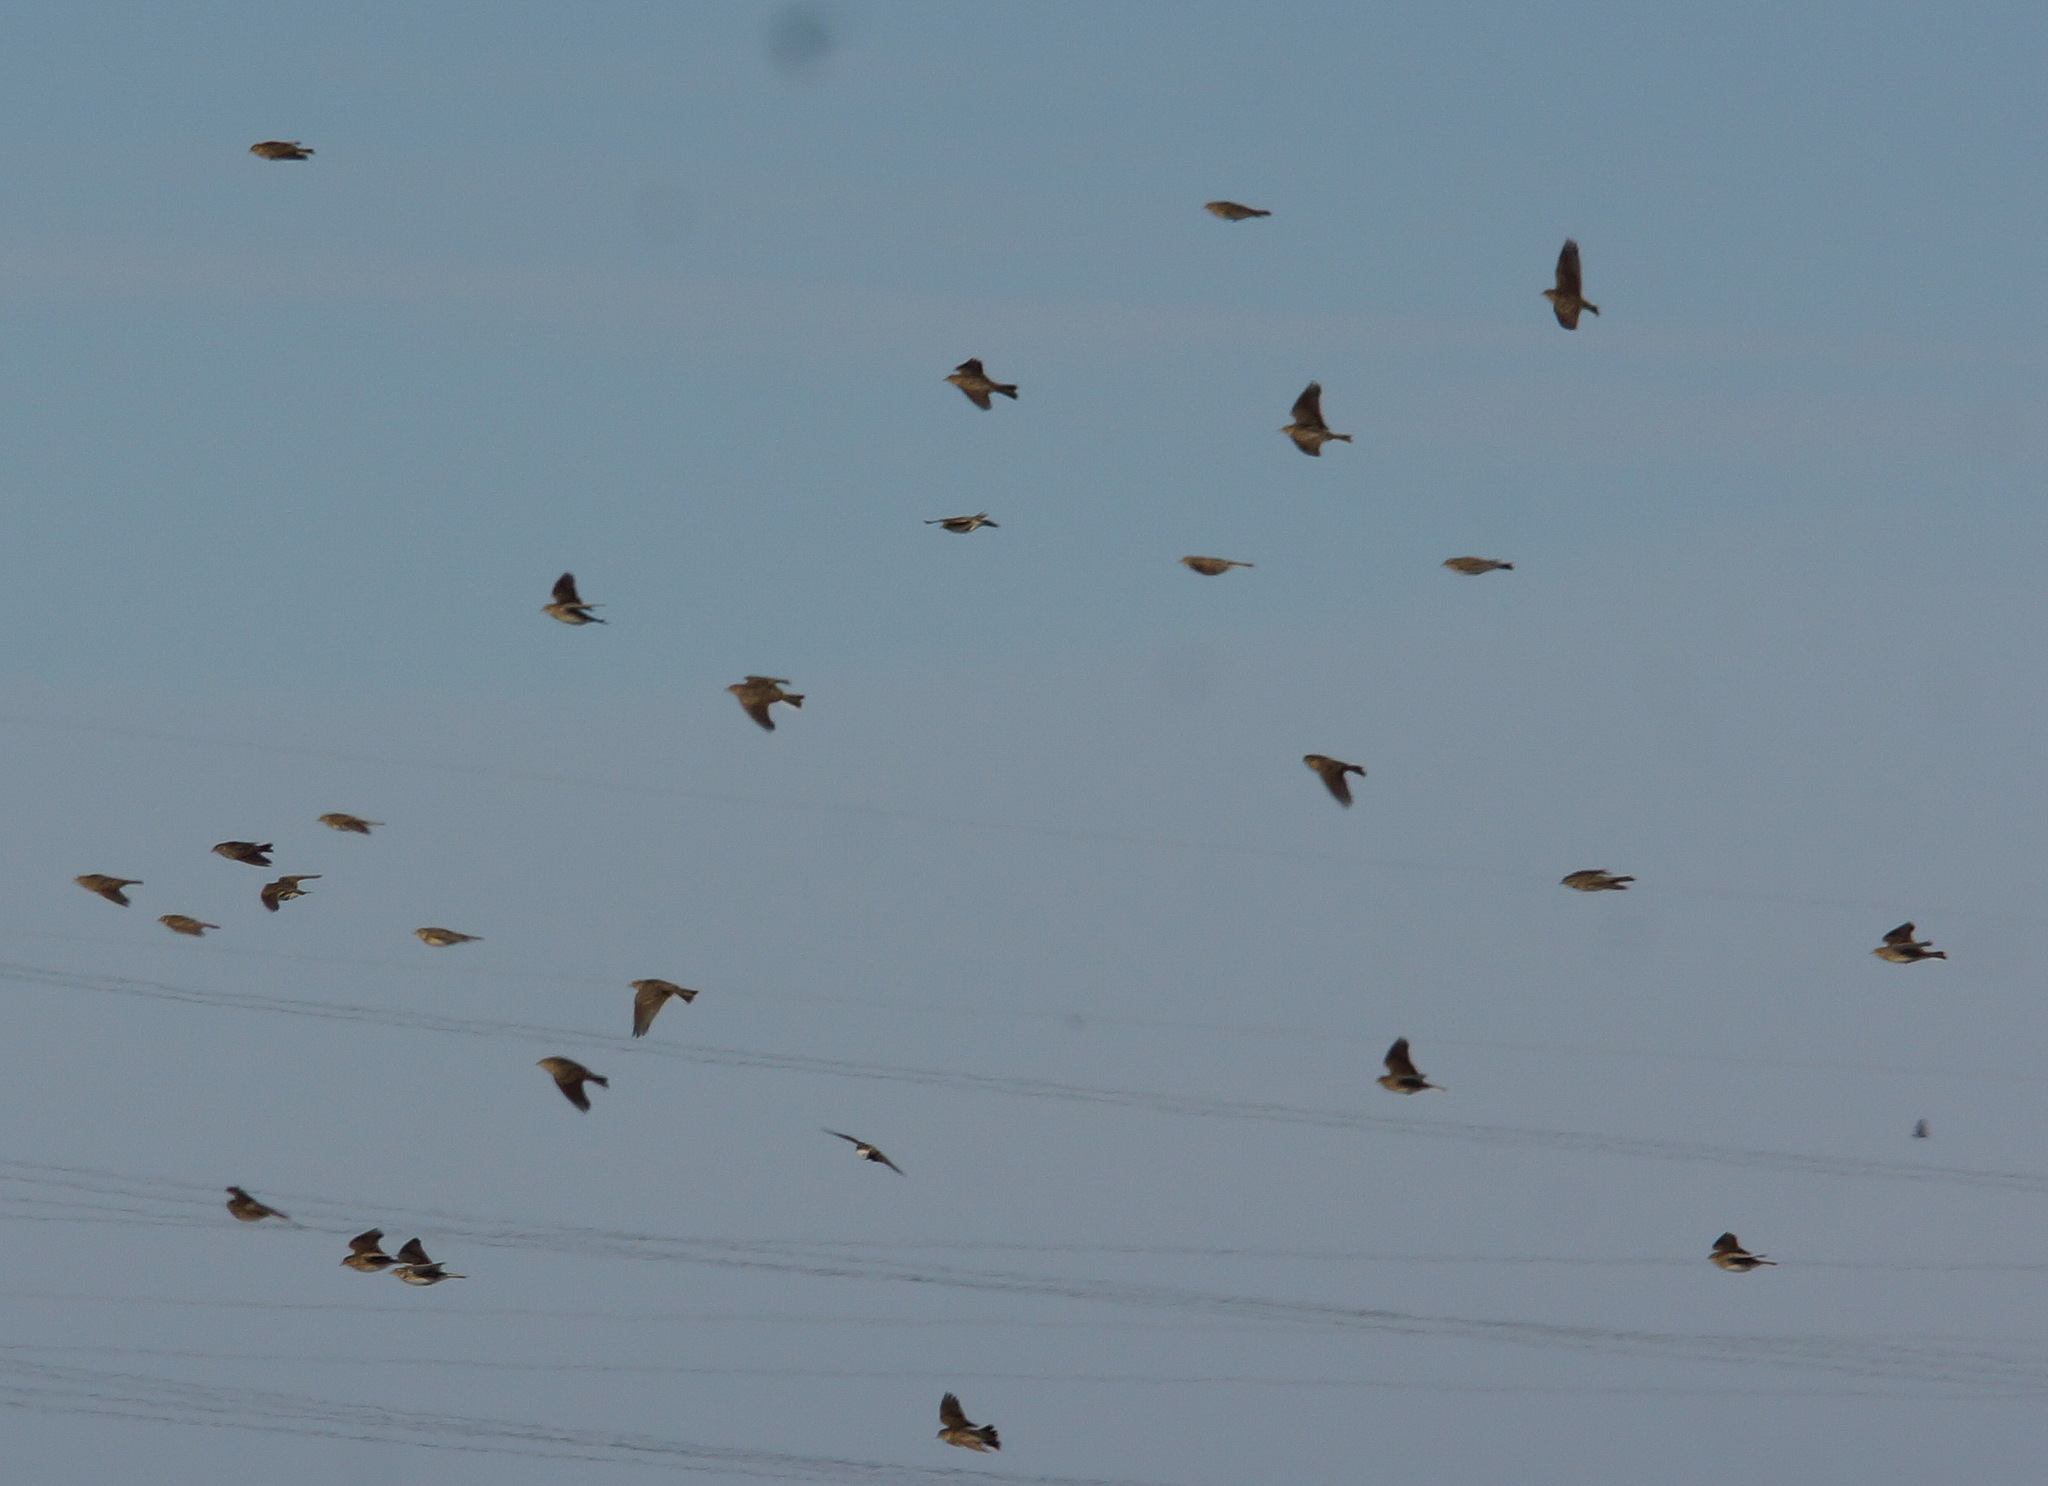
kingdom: Animalia
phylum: Chordata
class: Aves
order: Passeriformes
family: Alaudidae
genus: Alauda
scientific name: Alauda arvensis
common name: Eurasian skylark
